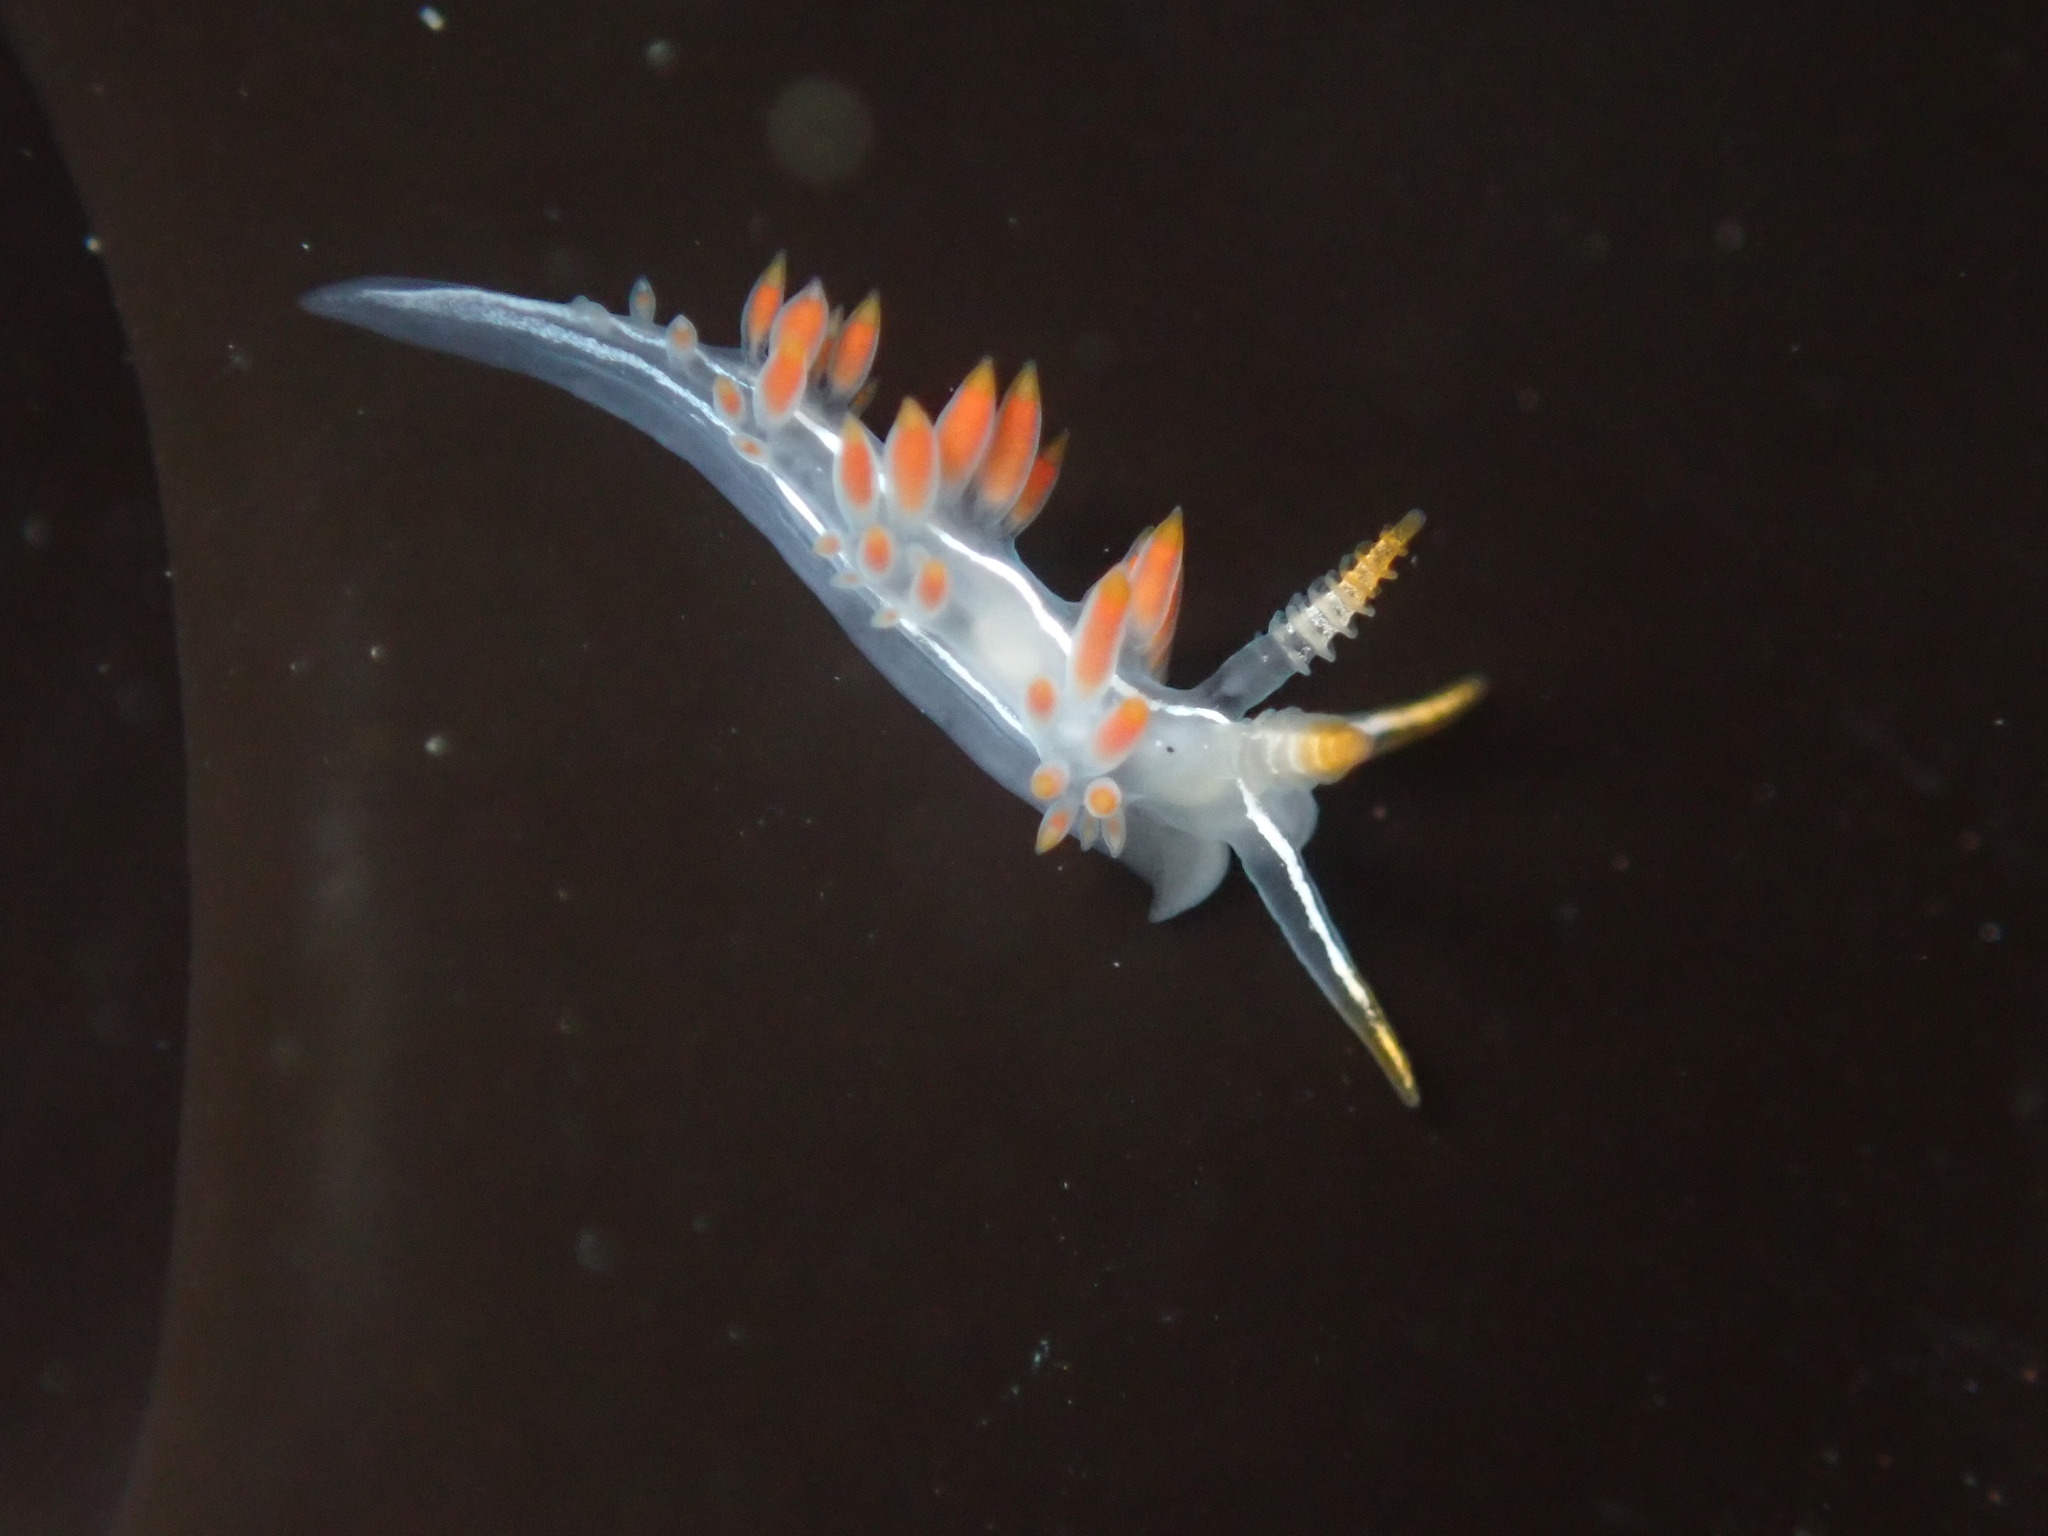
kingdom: Animalia
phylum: Mollusca
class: Gastropoda
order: Nudibranchia
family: Coryphellidae
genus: Coryphella
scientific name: Coryphella trilineata
